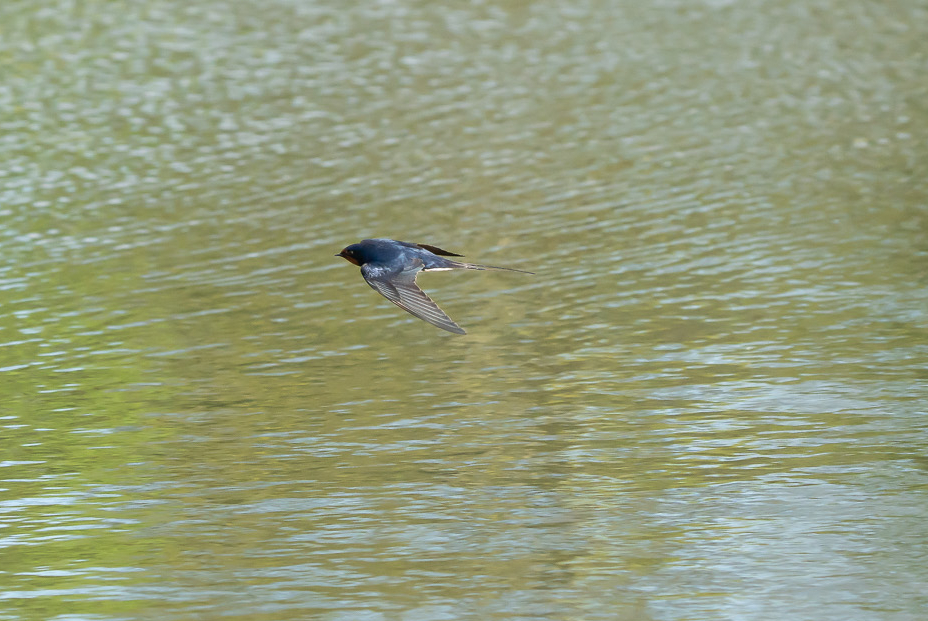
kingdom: Animalia
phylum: Chordata
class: Aves
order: Passeriformes
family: Hirundinidae
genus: Hirundo
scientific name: Hirundo rustica
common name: Barn swallow
